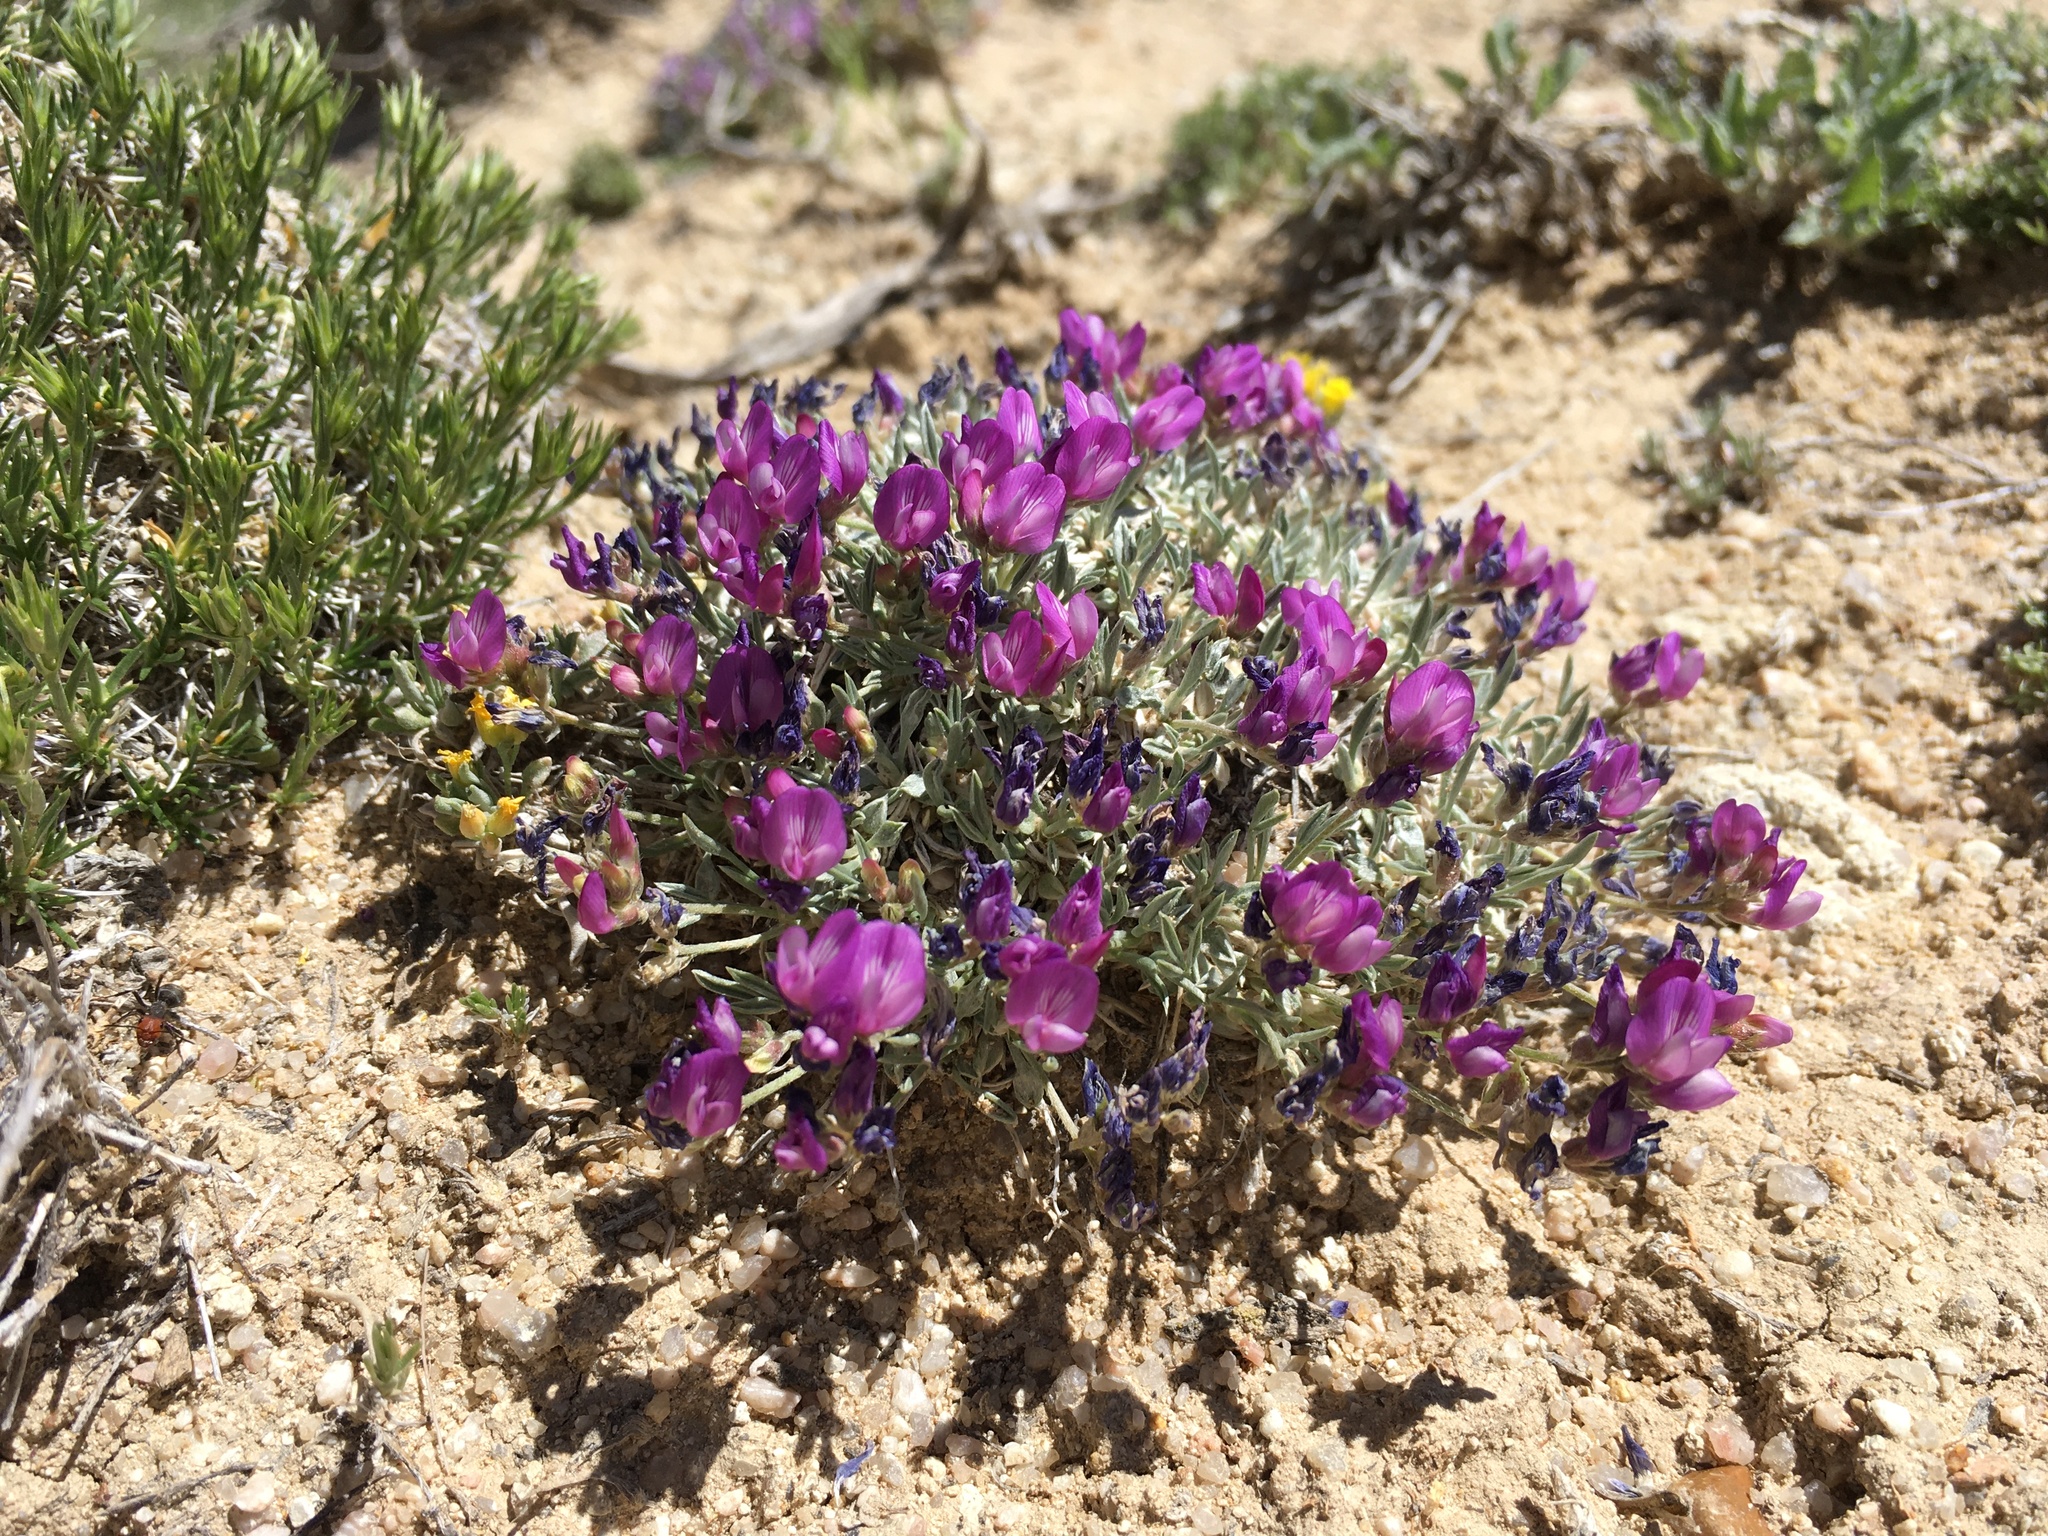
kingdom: Plantae
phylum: Tracheophyta
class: Magnoliopsida
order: Fabales
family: Fabaceae
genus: Astragalus
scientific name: Astragalus spatulatus
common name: Draba milk-vetch
